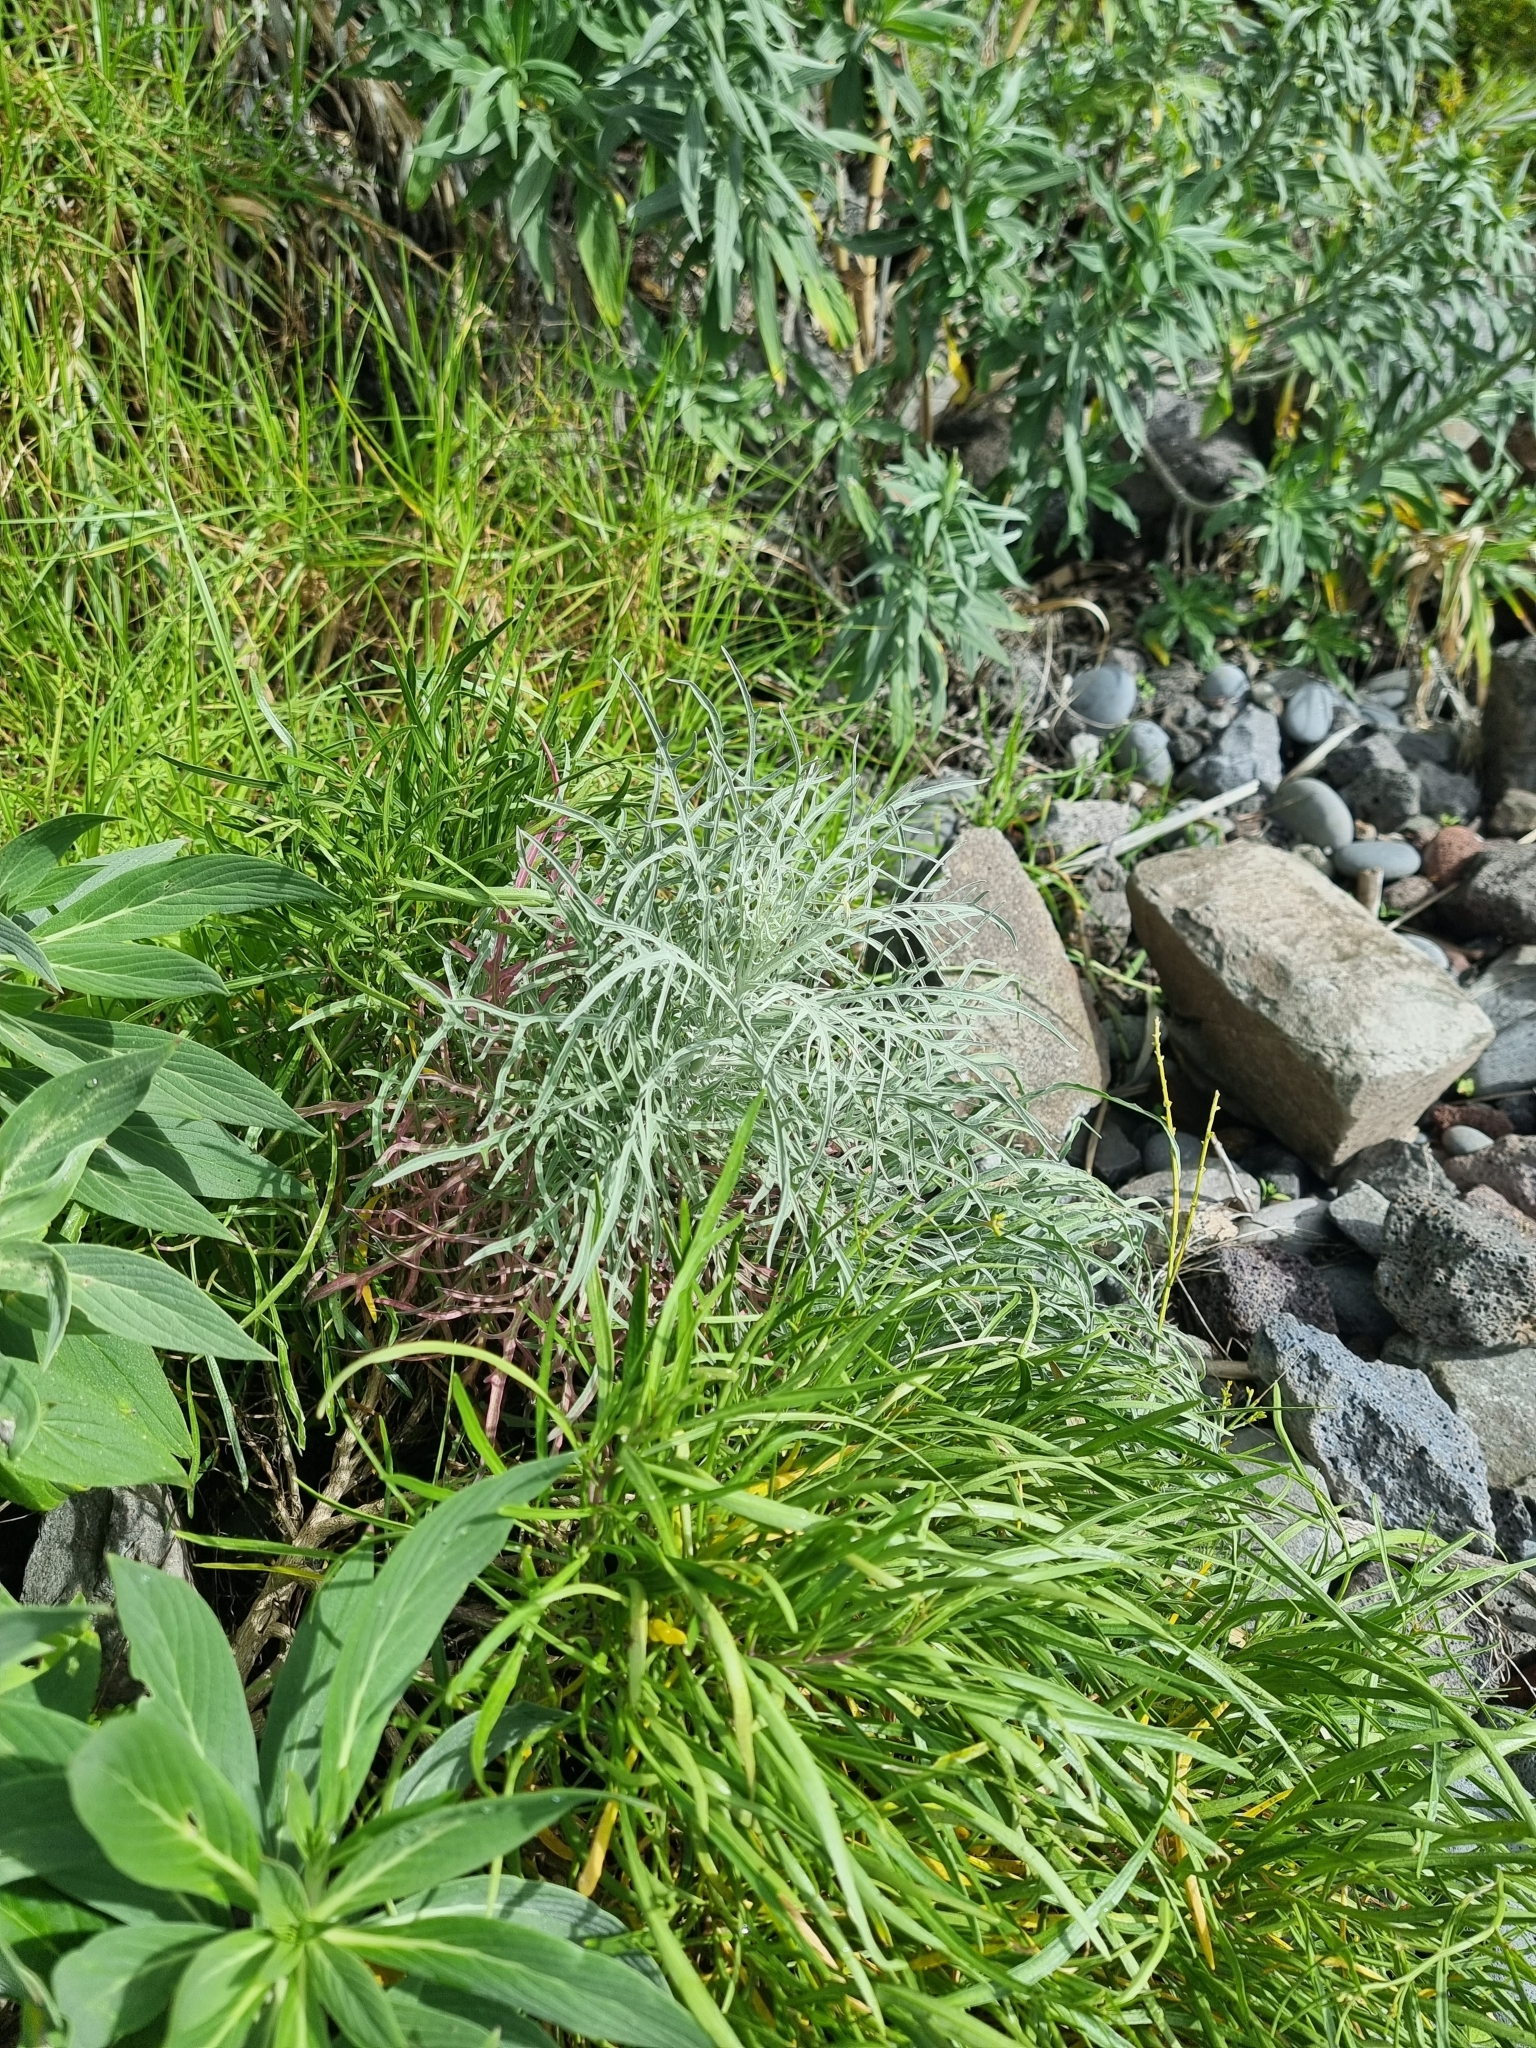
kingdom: Plantae
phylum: Tracheophyta
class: Magnoliopsida
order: Asterales
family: Asteraceae
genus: Andryala
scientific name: Andryala crithmifolia
